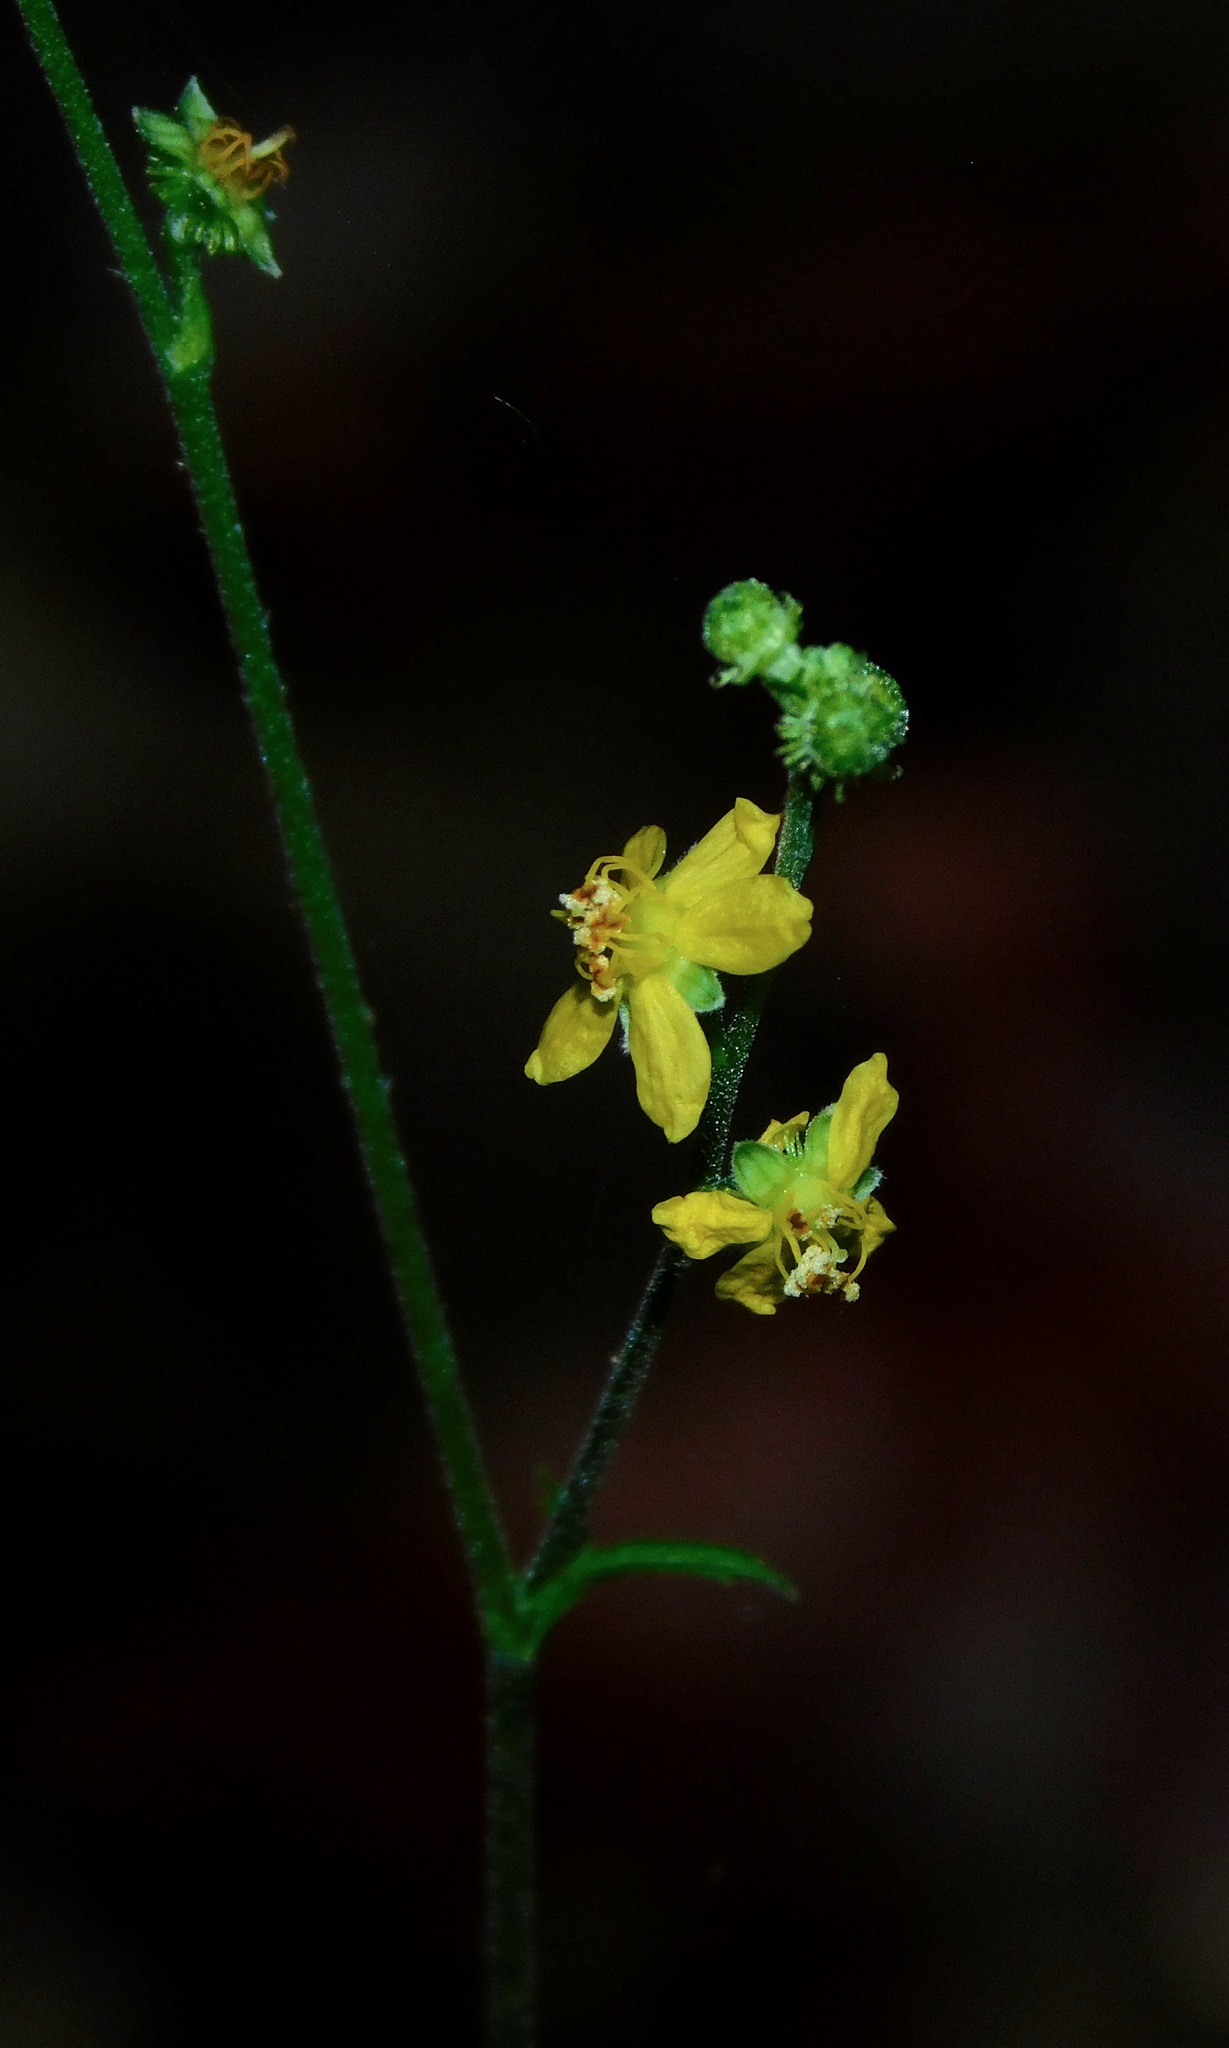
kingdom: Plantae
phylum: Tracheophyta
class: Magnoliopsida
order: Rosales
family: Rosaceae
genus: Agrimonia
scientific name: Agrimonia pubescens
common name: Downy agrimony
